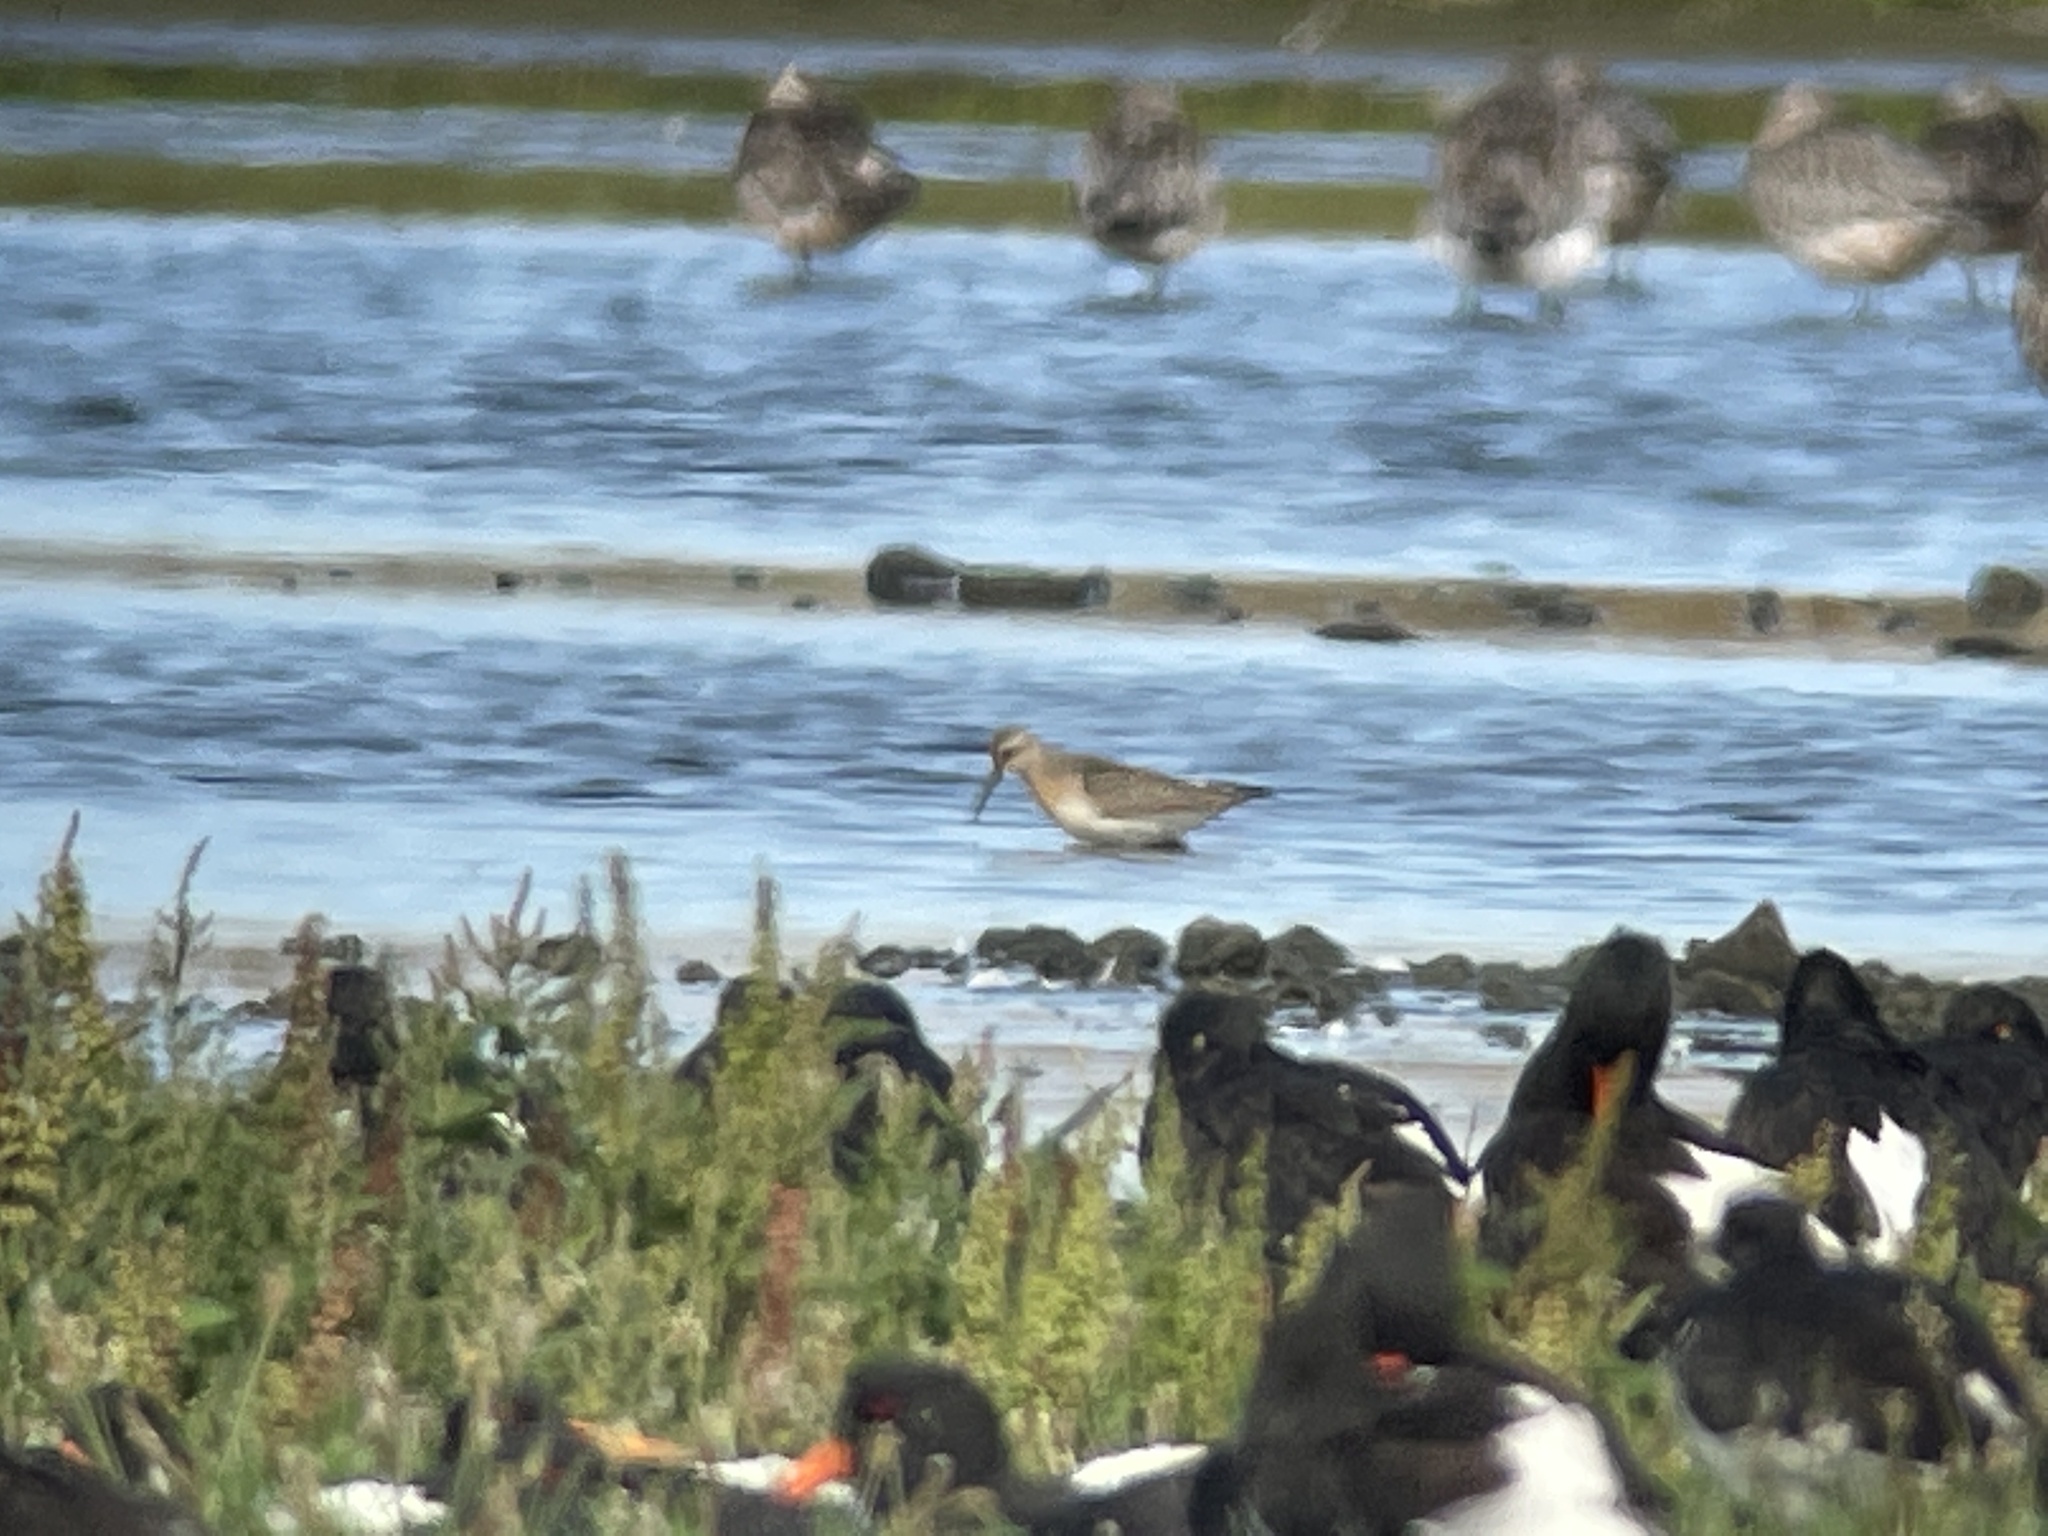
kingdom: Animalia
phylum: Chordata
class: Aves
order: Charadriiformes
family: Scolopacidae
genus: Calidris
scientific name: Calidris ferruginea
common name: Curlew sandpiper
